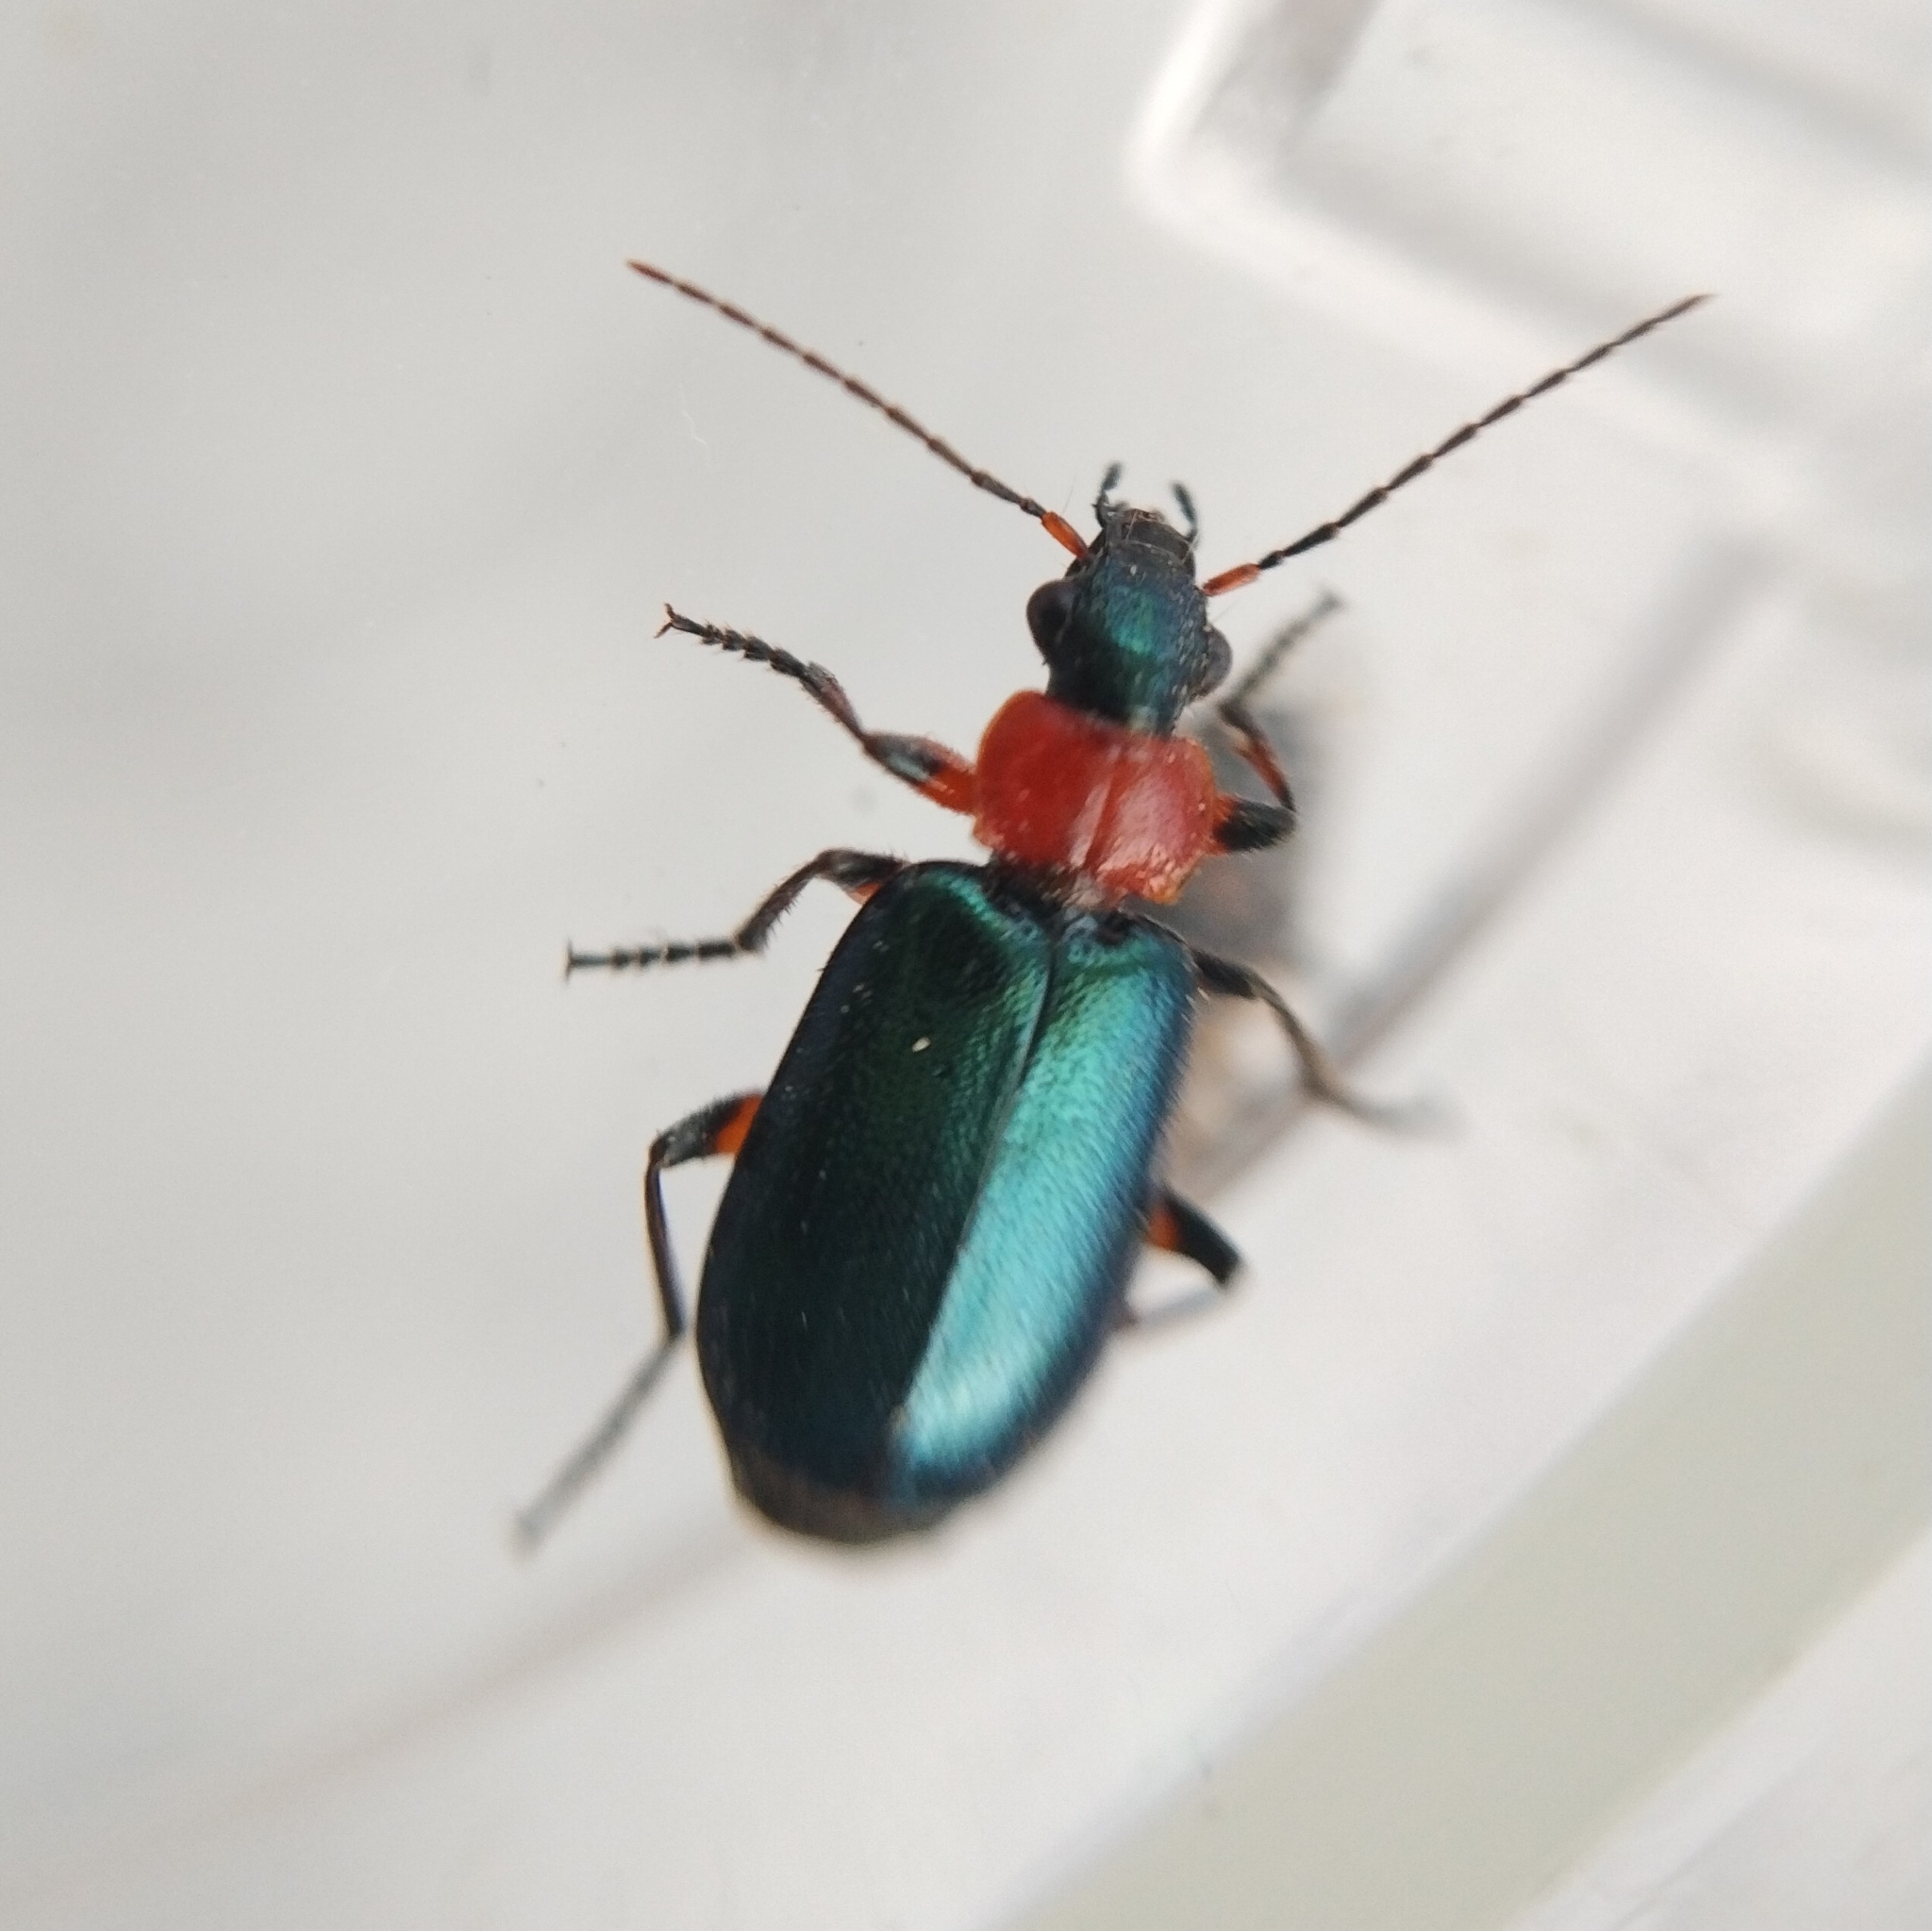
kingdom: Animalia
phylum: Arthropoda
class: Insecta
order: Coleoptera
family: Carabidae
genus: Lebia
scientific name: Lebia cyanocephala
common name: Blue plunderer
